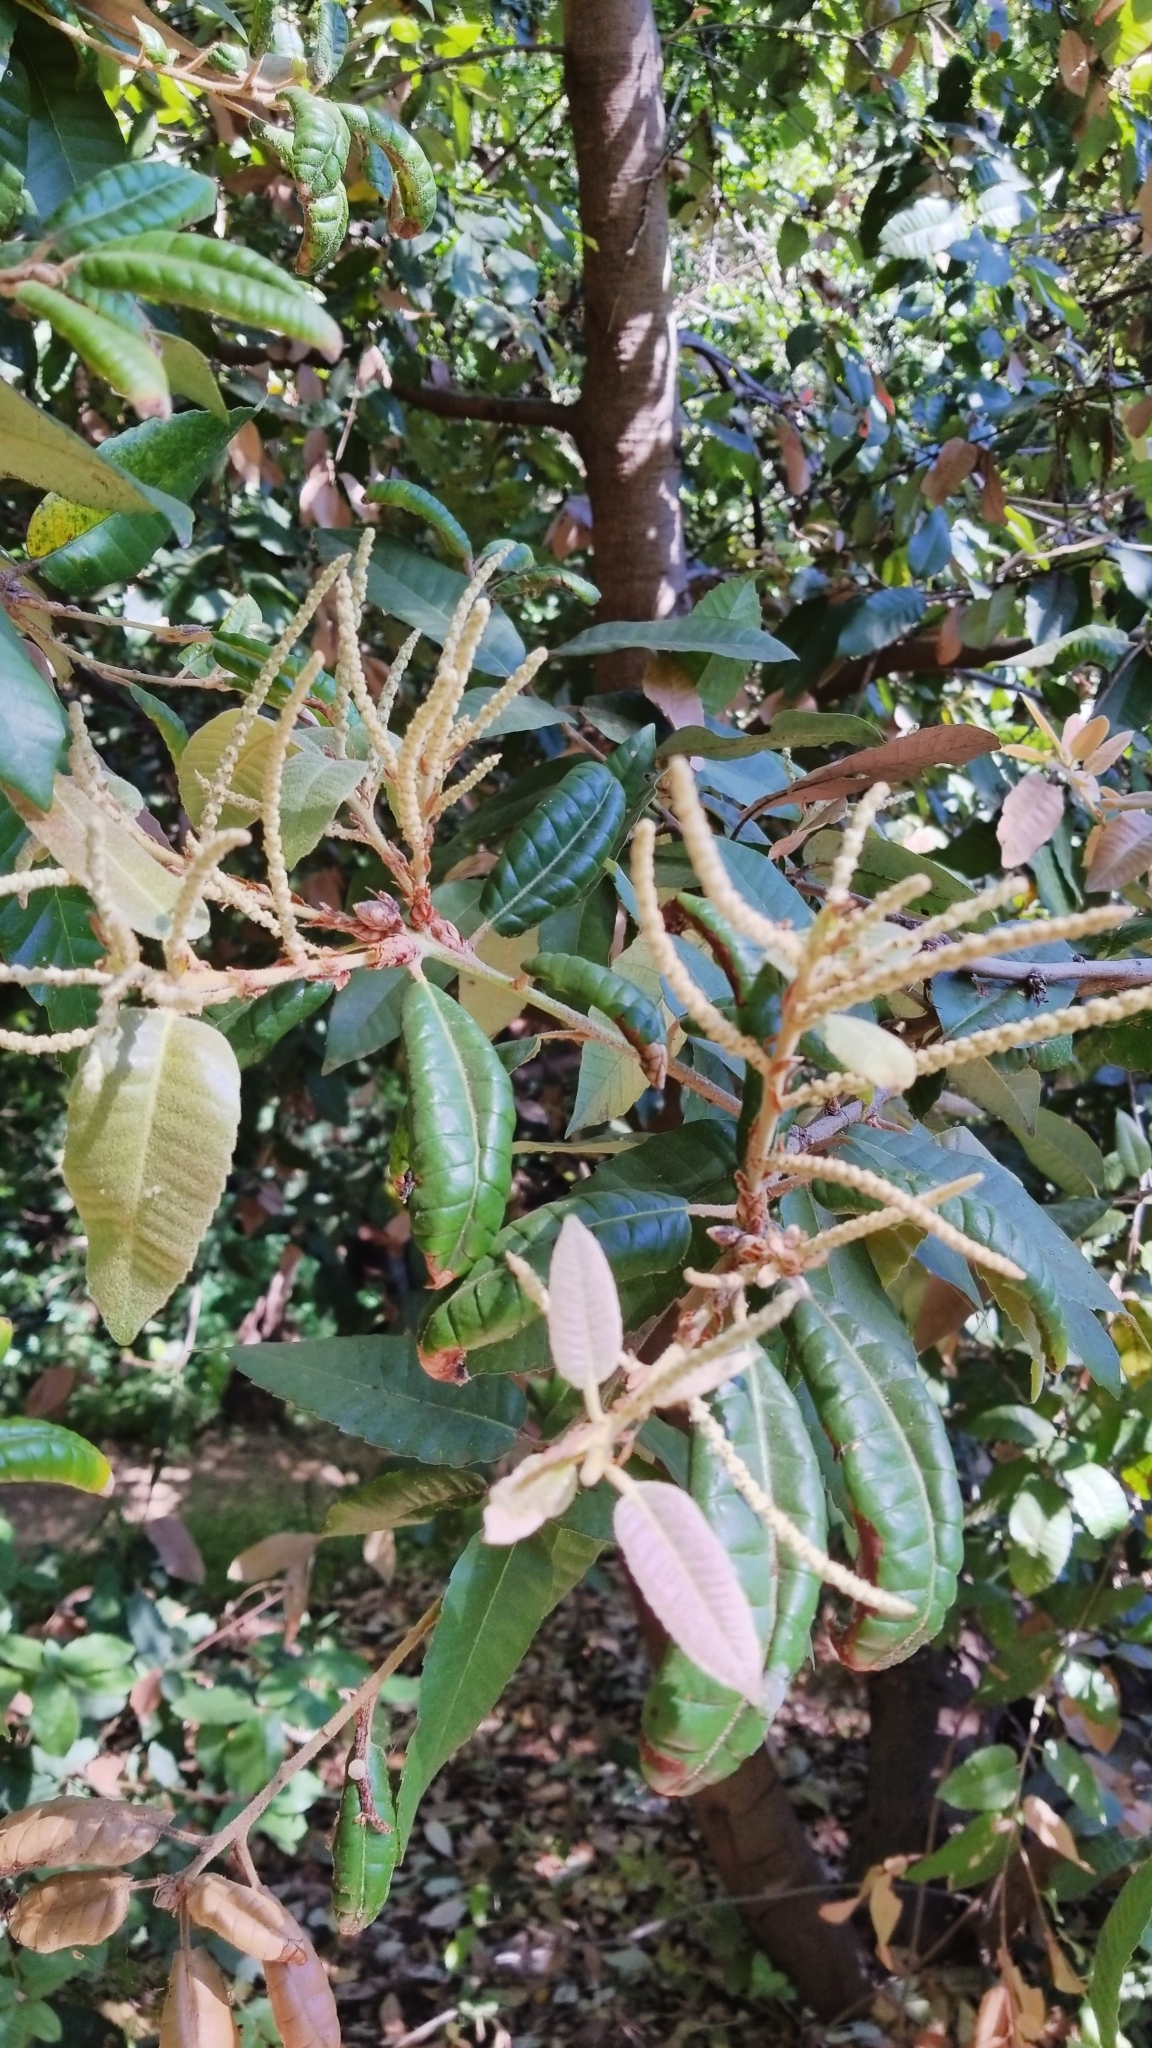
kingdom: Plantae
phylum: Tracheophyta
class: Magnoliopsida
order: Fagales
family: Fagaceae
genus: Notholithocarpus
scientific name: Notholithocarpus densiflorus
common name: Tan bark oak
